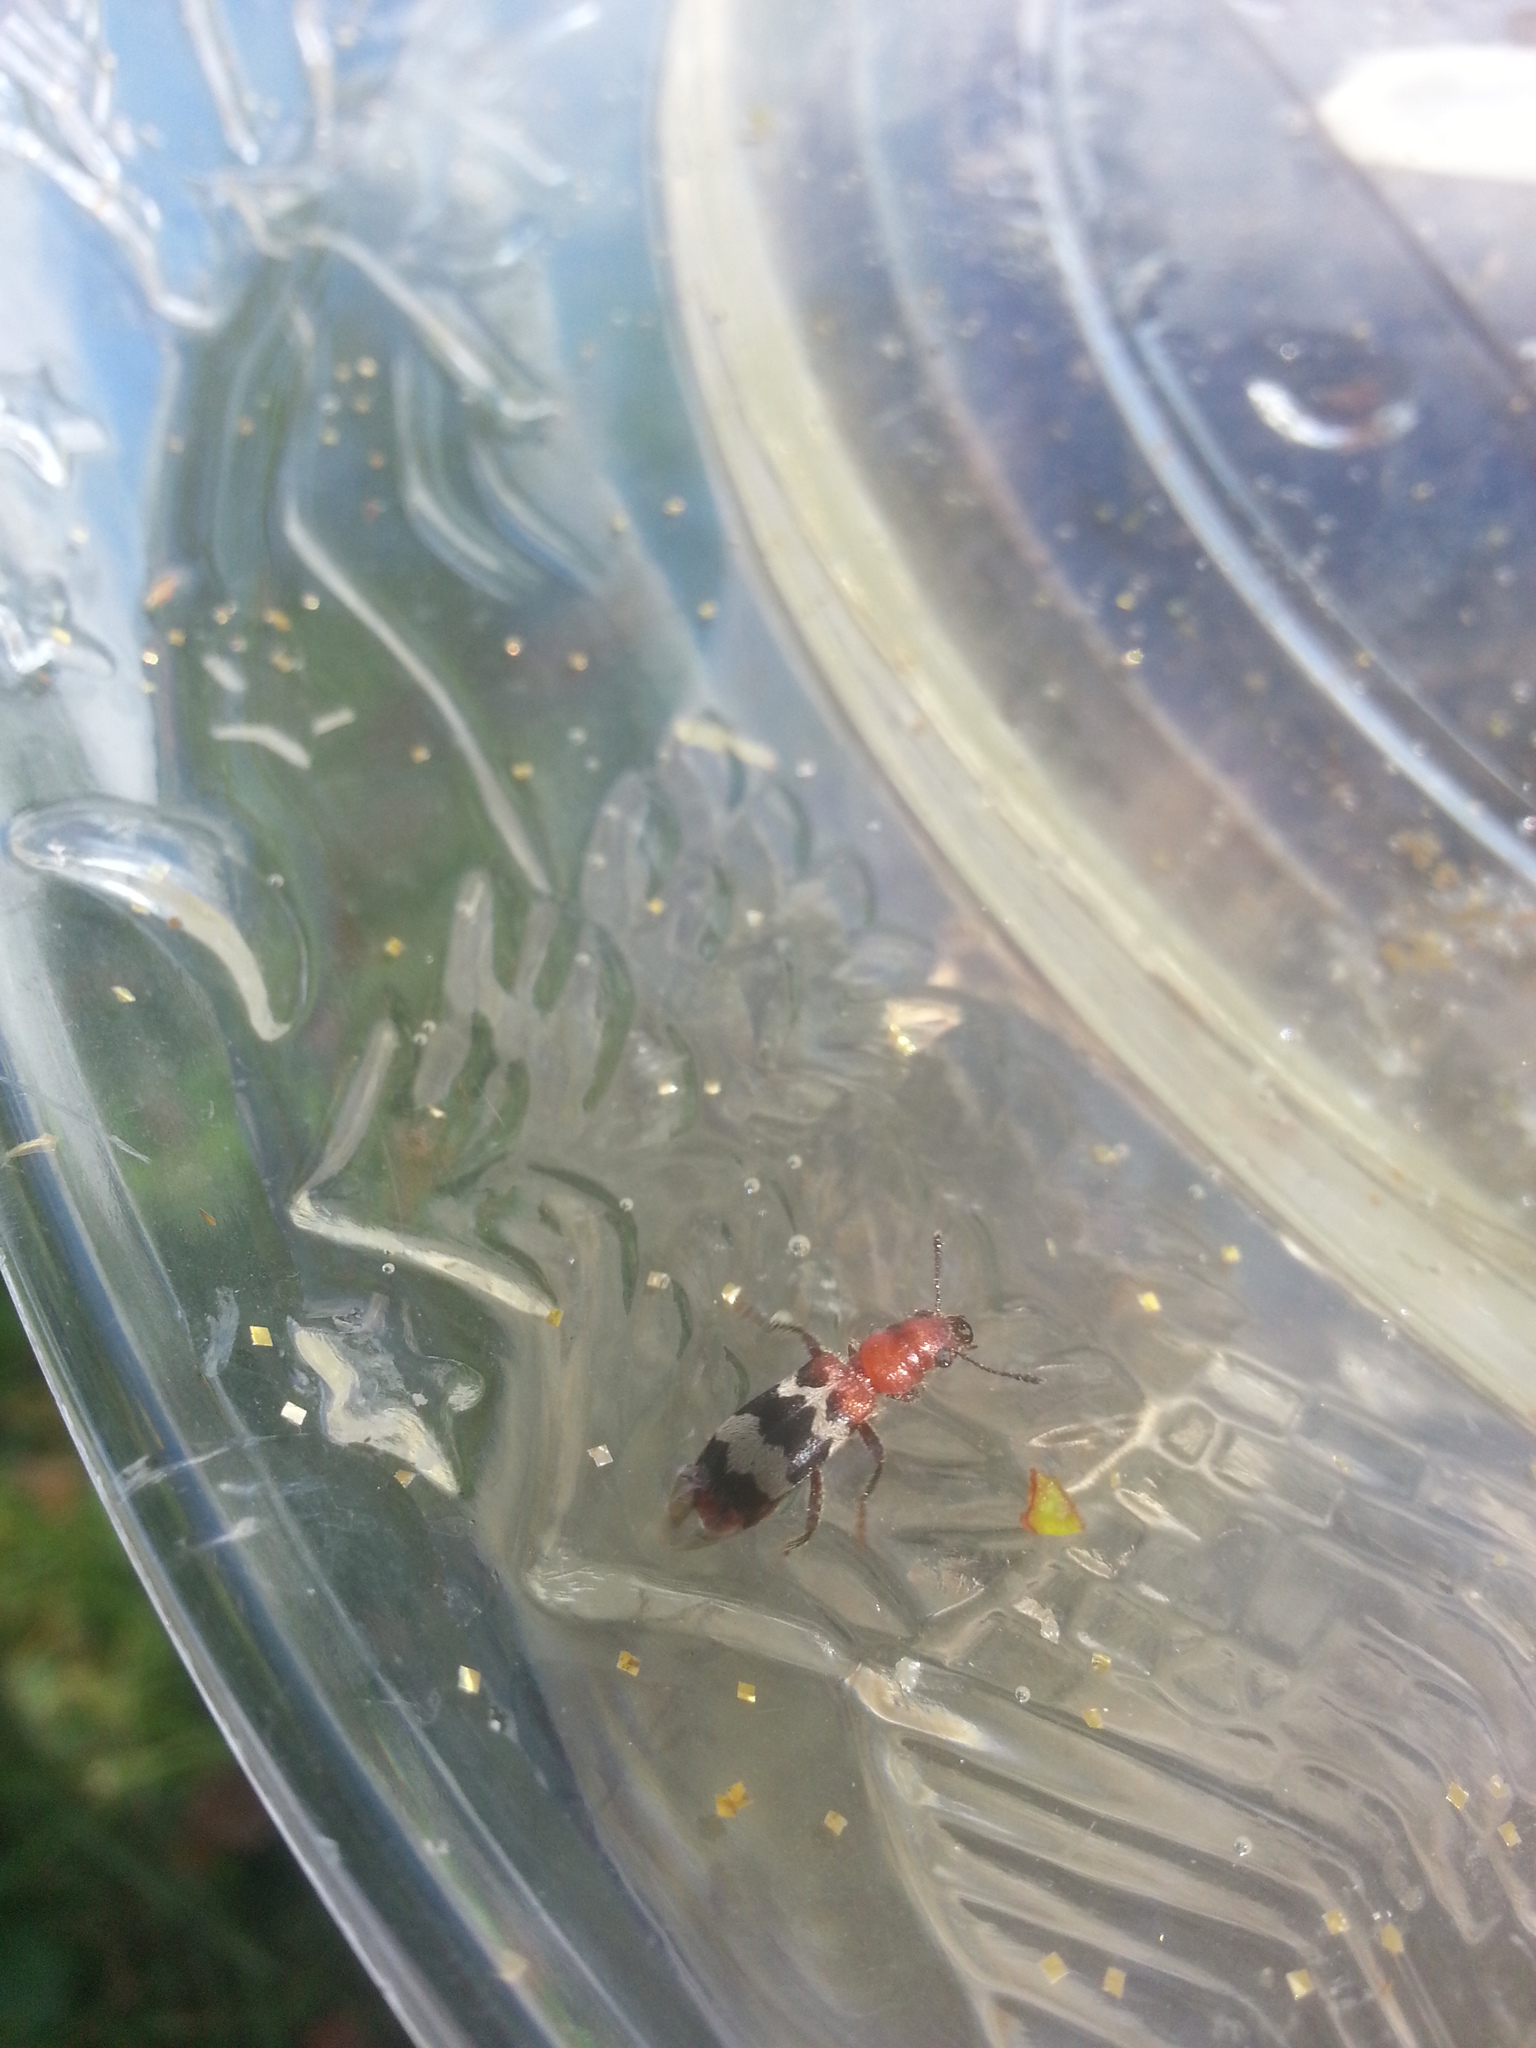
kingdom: Animalia
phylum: Arthropoda
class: Insecta
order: Coleoptera
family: Cleridae
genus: Thanasimus
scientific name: Thanasimus dubius
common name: Wavering checkered beetle
